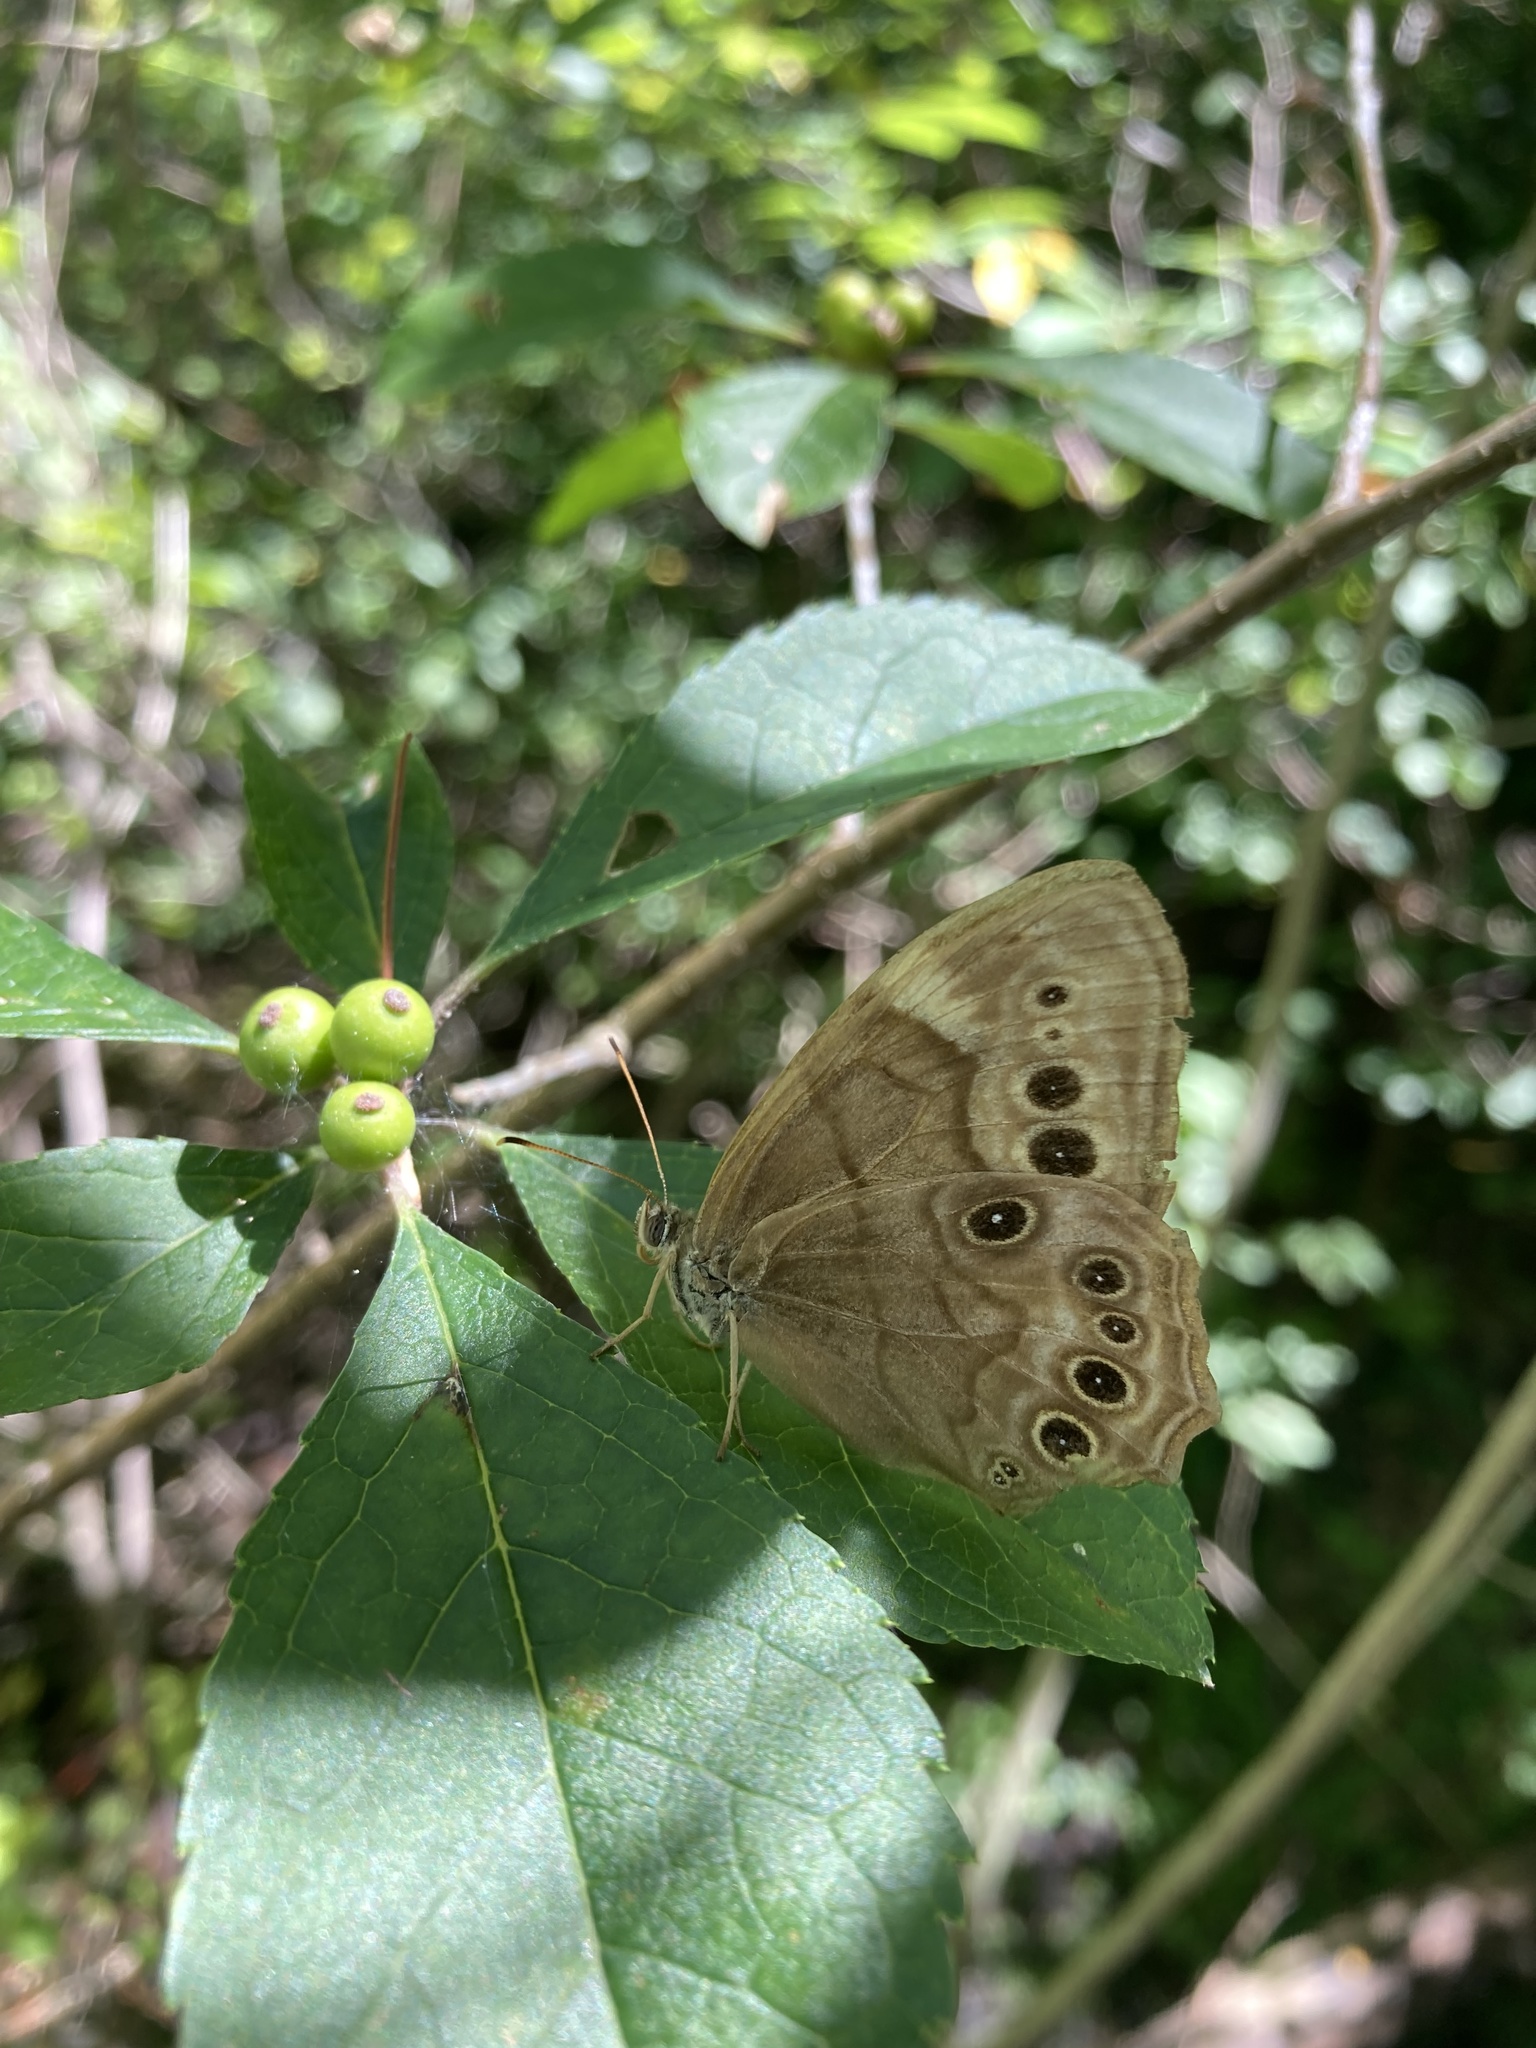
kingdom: Animalia
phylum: Arthropoda
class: Insecta
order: Lepidoptera
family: Nymphalidae
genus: Lethe
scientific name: Lethe anthedon
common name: Northern pearly-eye
